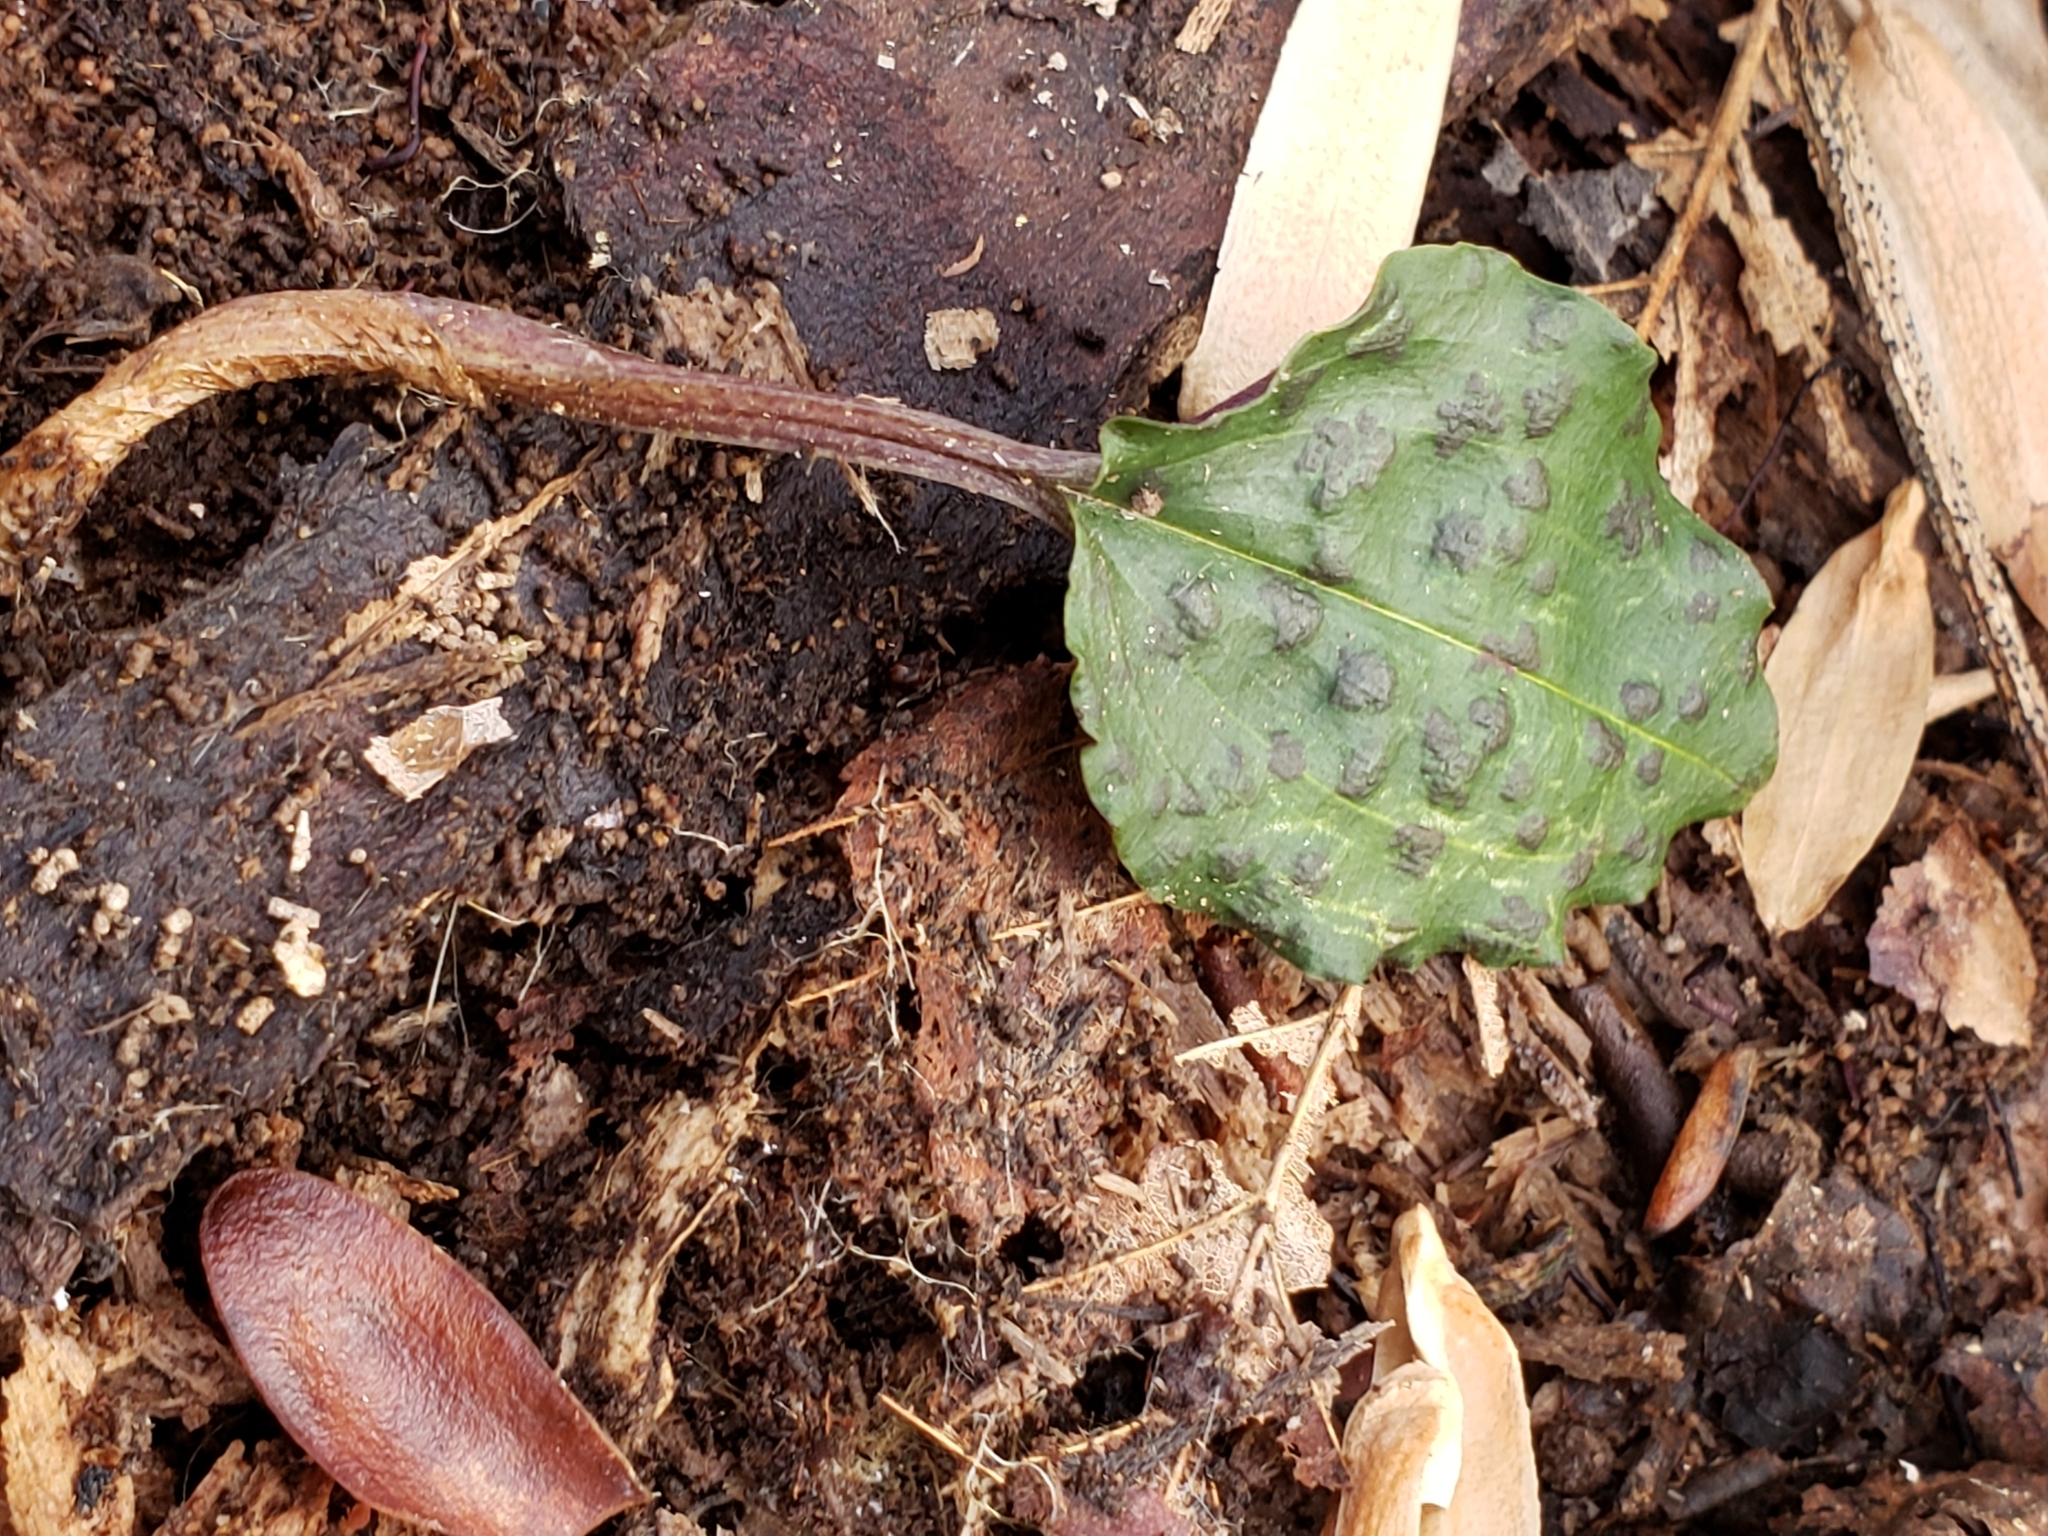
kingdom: Plantae
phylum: Tracheophyta
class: Liliopsida
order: Asparagales
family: Orchidaceae
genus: Tipularia
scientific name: Tipularia discolor
